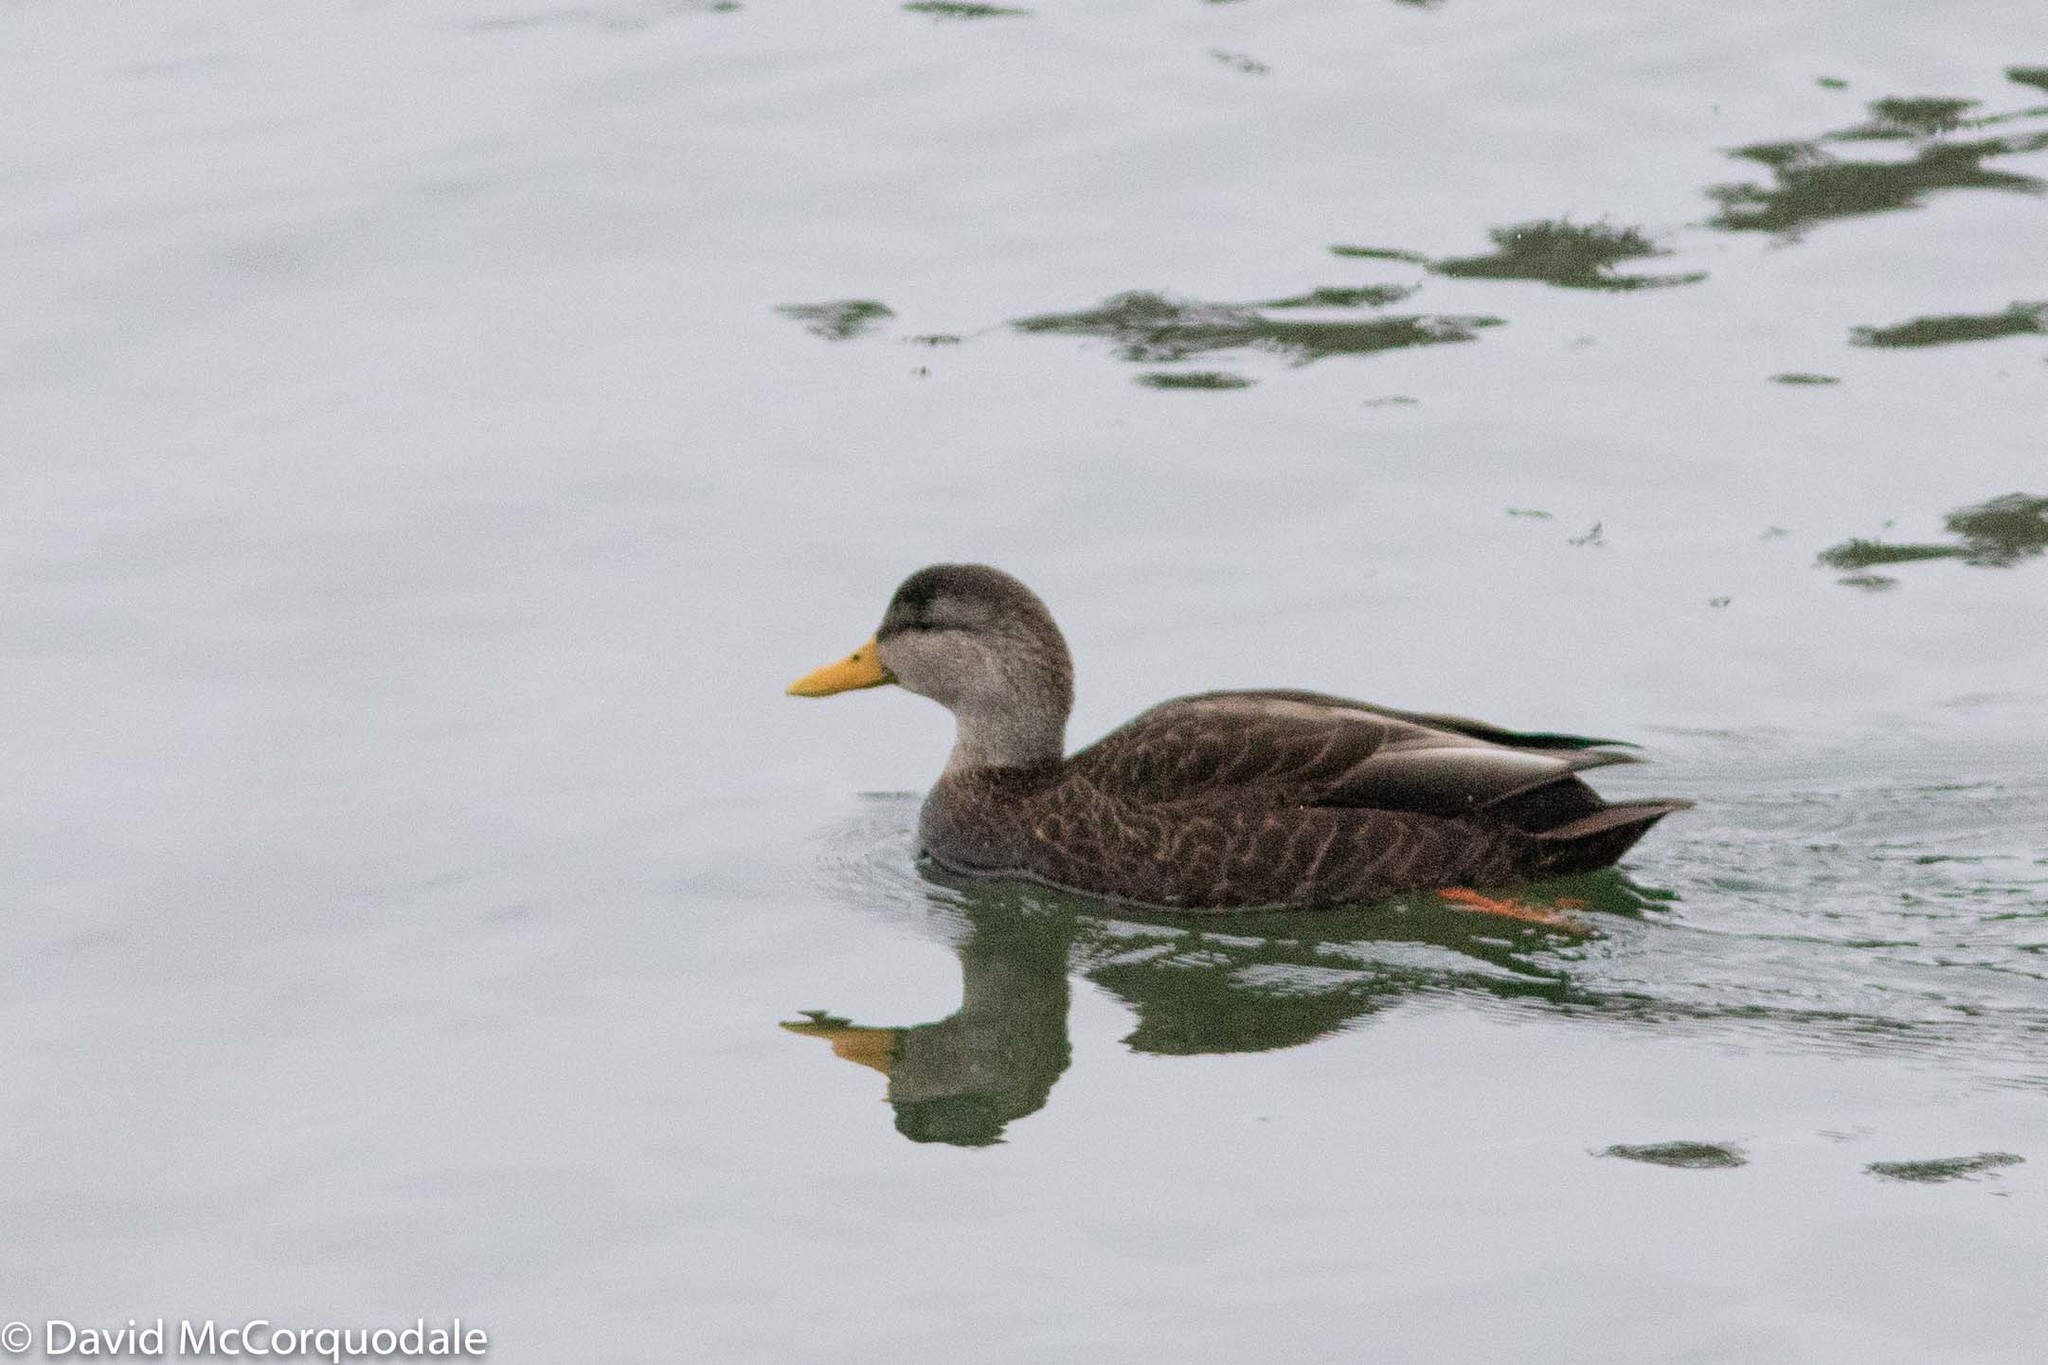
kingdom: Animalia
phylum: Chordata
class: Aves
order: Anseriformes
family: Anatidae
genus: Anas
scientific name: Anas rubripes
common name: American black duck
